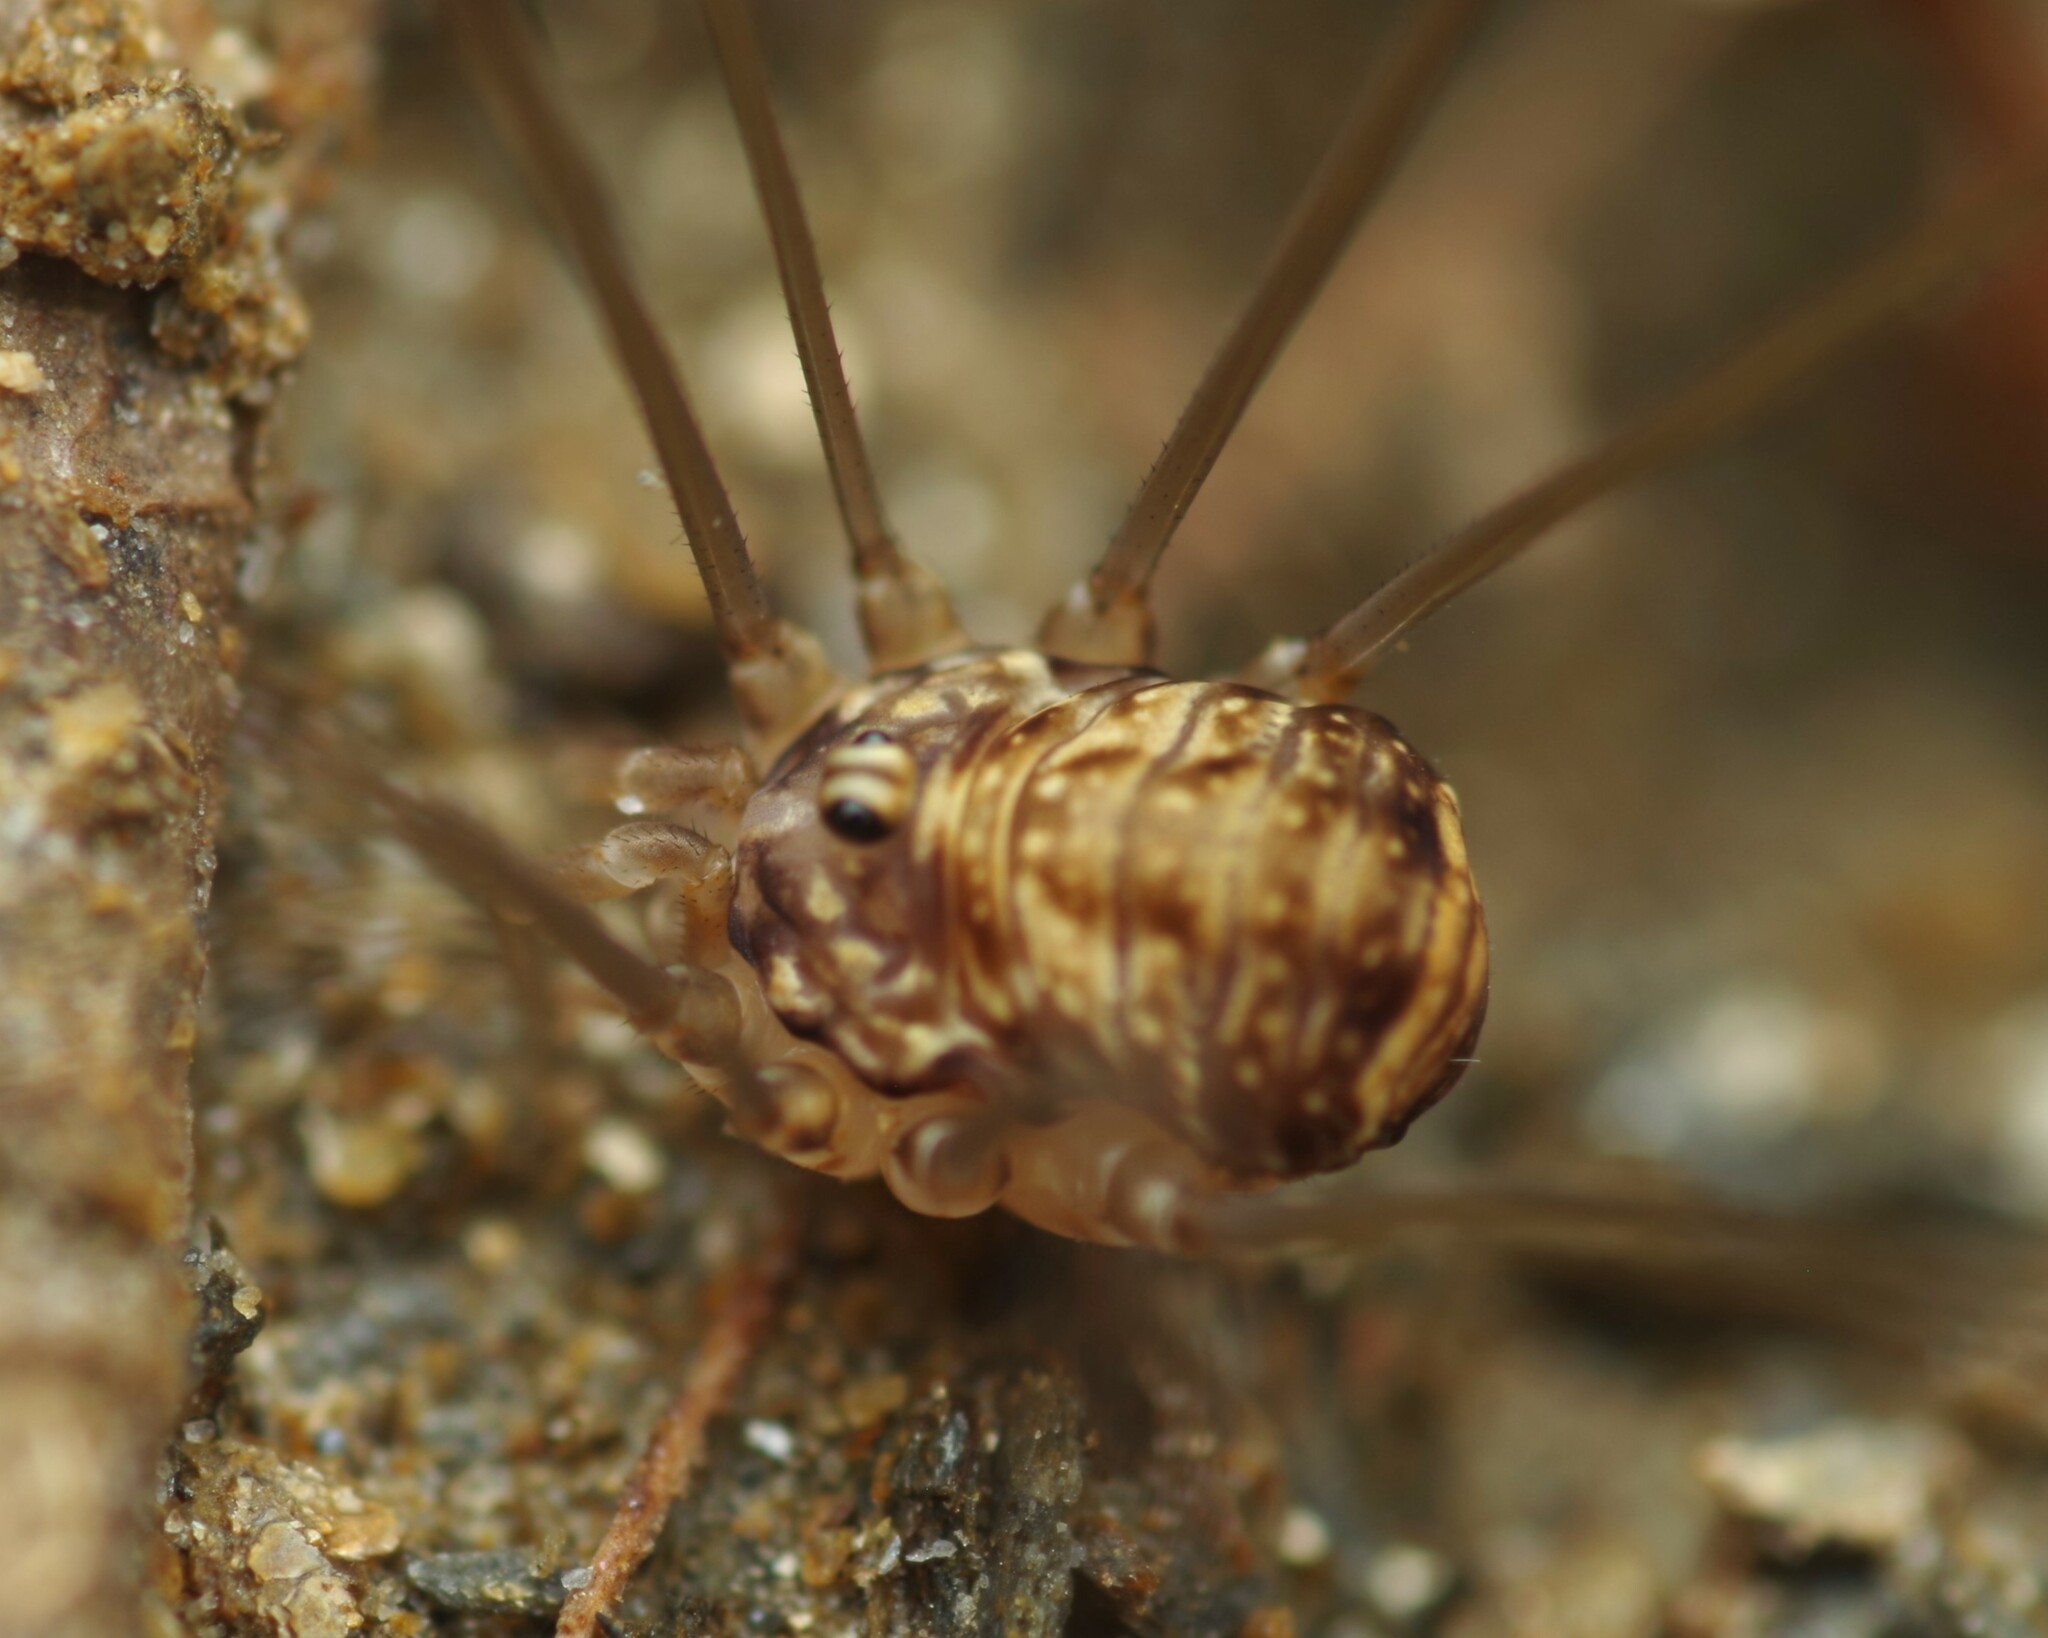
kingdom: Animalia
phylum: Arthropoda
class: Arachnida
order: Opiliones
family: Sclerosomatidae
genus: Leiobunum
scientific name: Leiobunum blackwalli
